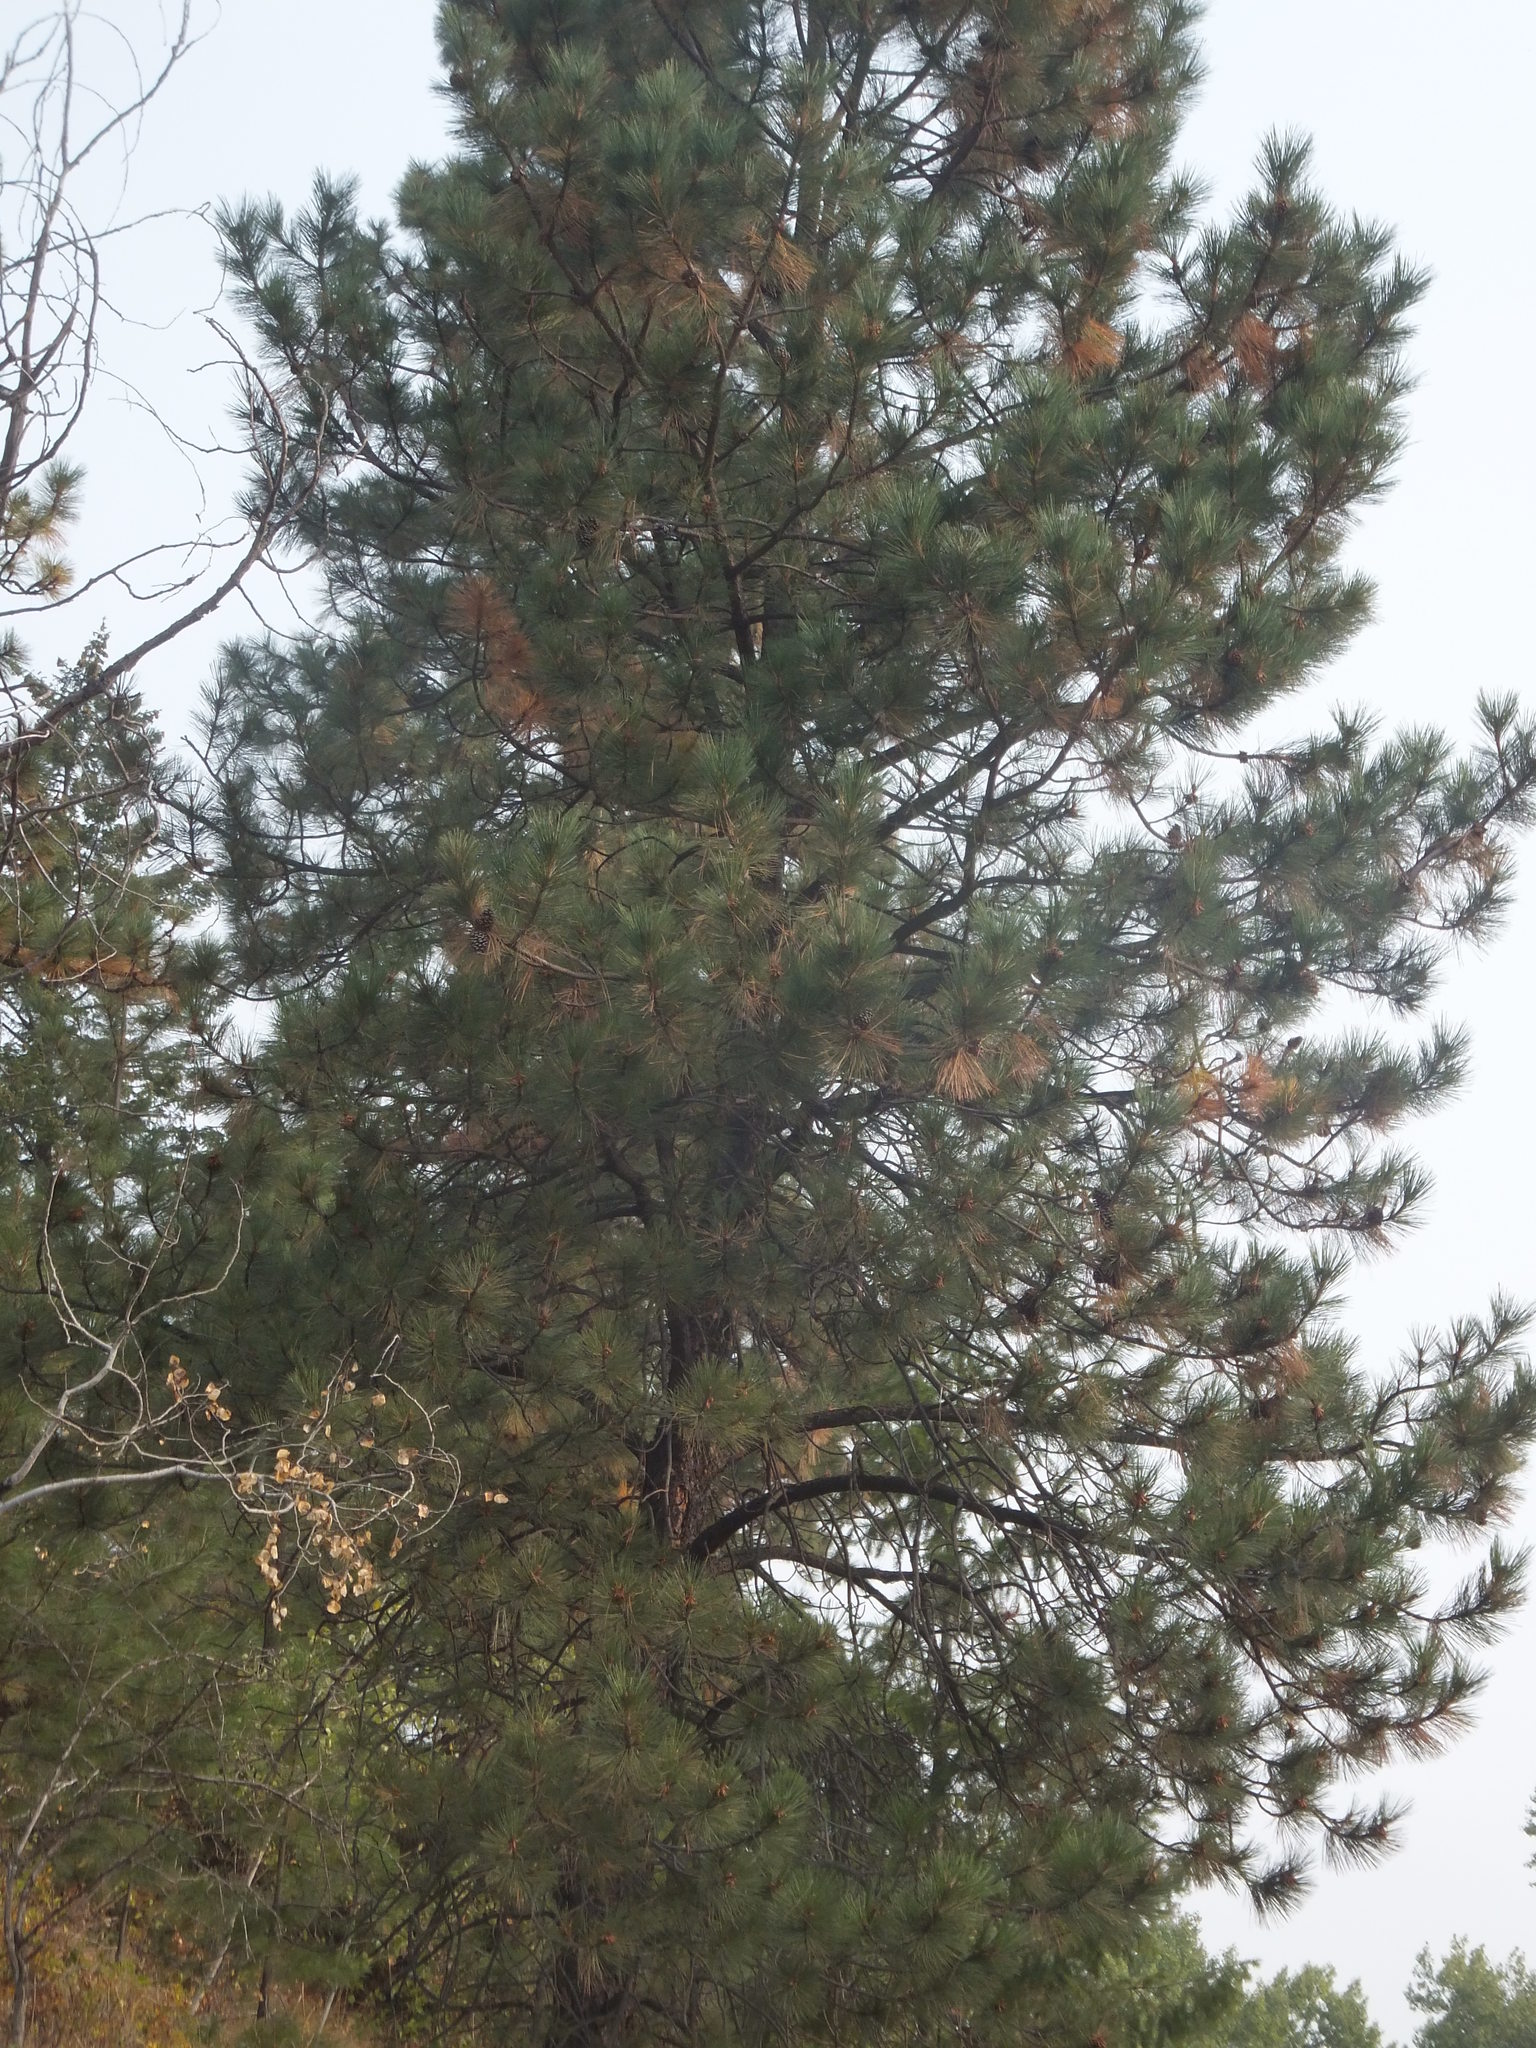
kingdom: Plantae
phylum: Tracheophyta
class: Pinopsida
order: Pinales
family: Pinaceae
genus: Pinus
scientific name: Pinus ponderosa
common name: Western yellow-pine
